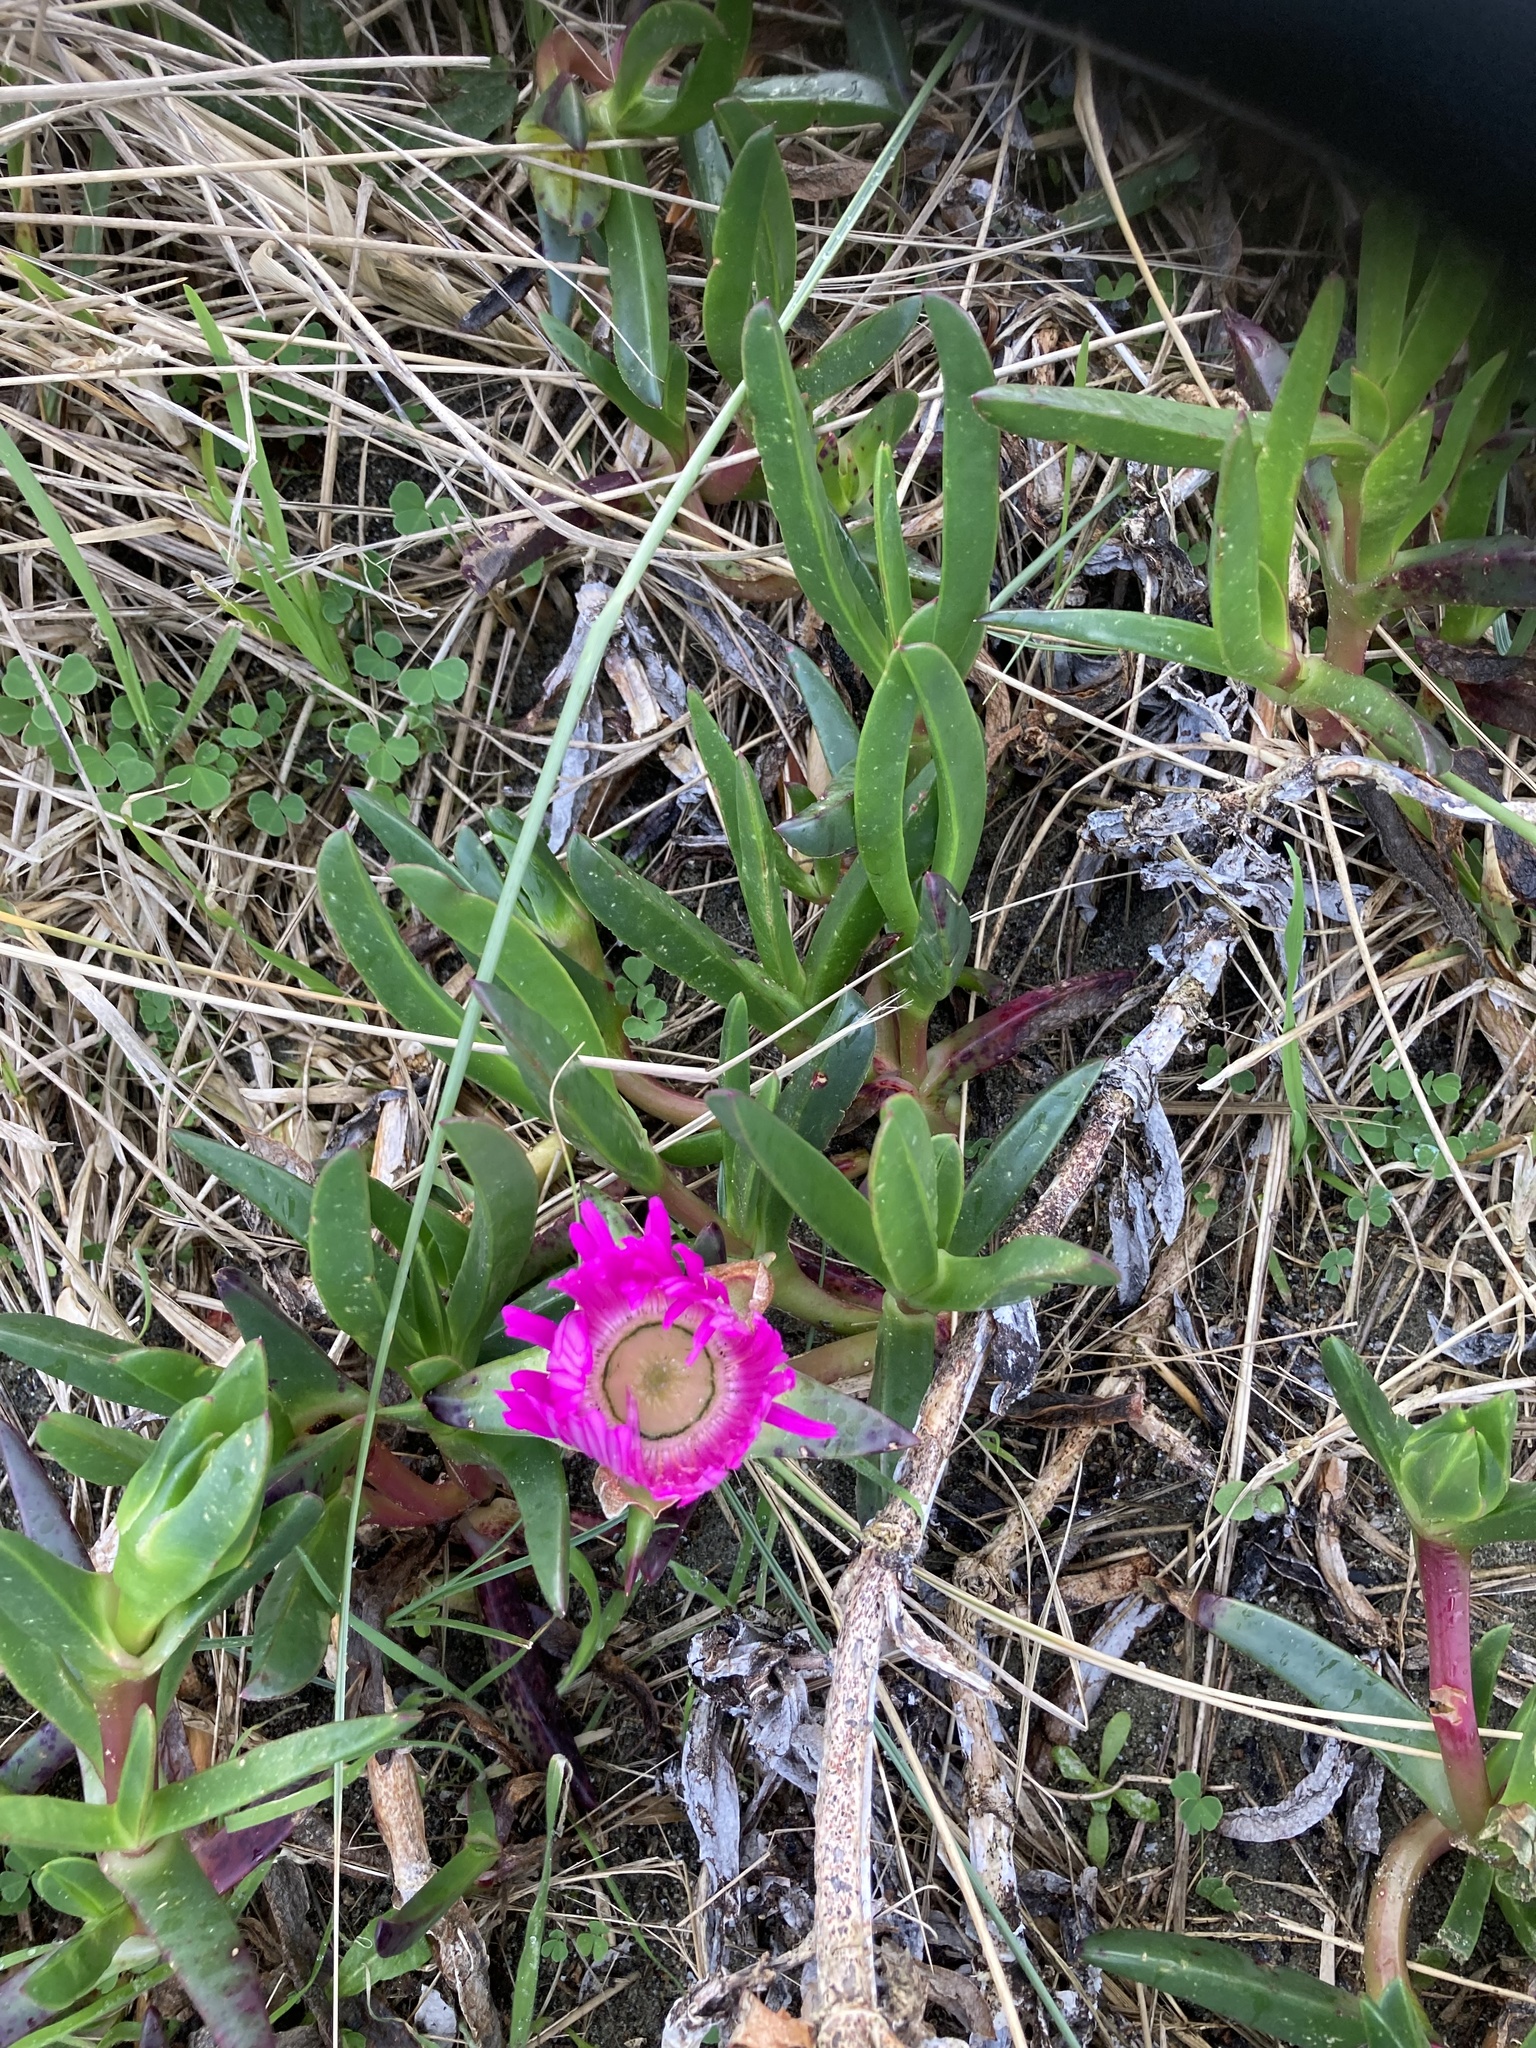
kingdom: Plantae
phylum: Tracheophyta
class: Magnoliopsida
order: Caryophyllales
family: Aizoaceae
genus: Carpobrotus
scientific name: Carpobrotus chilensis
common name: Sea fig
